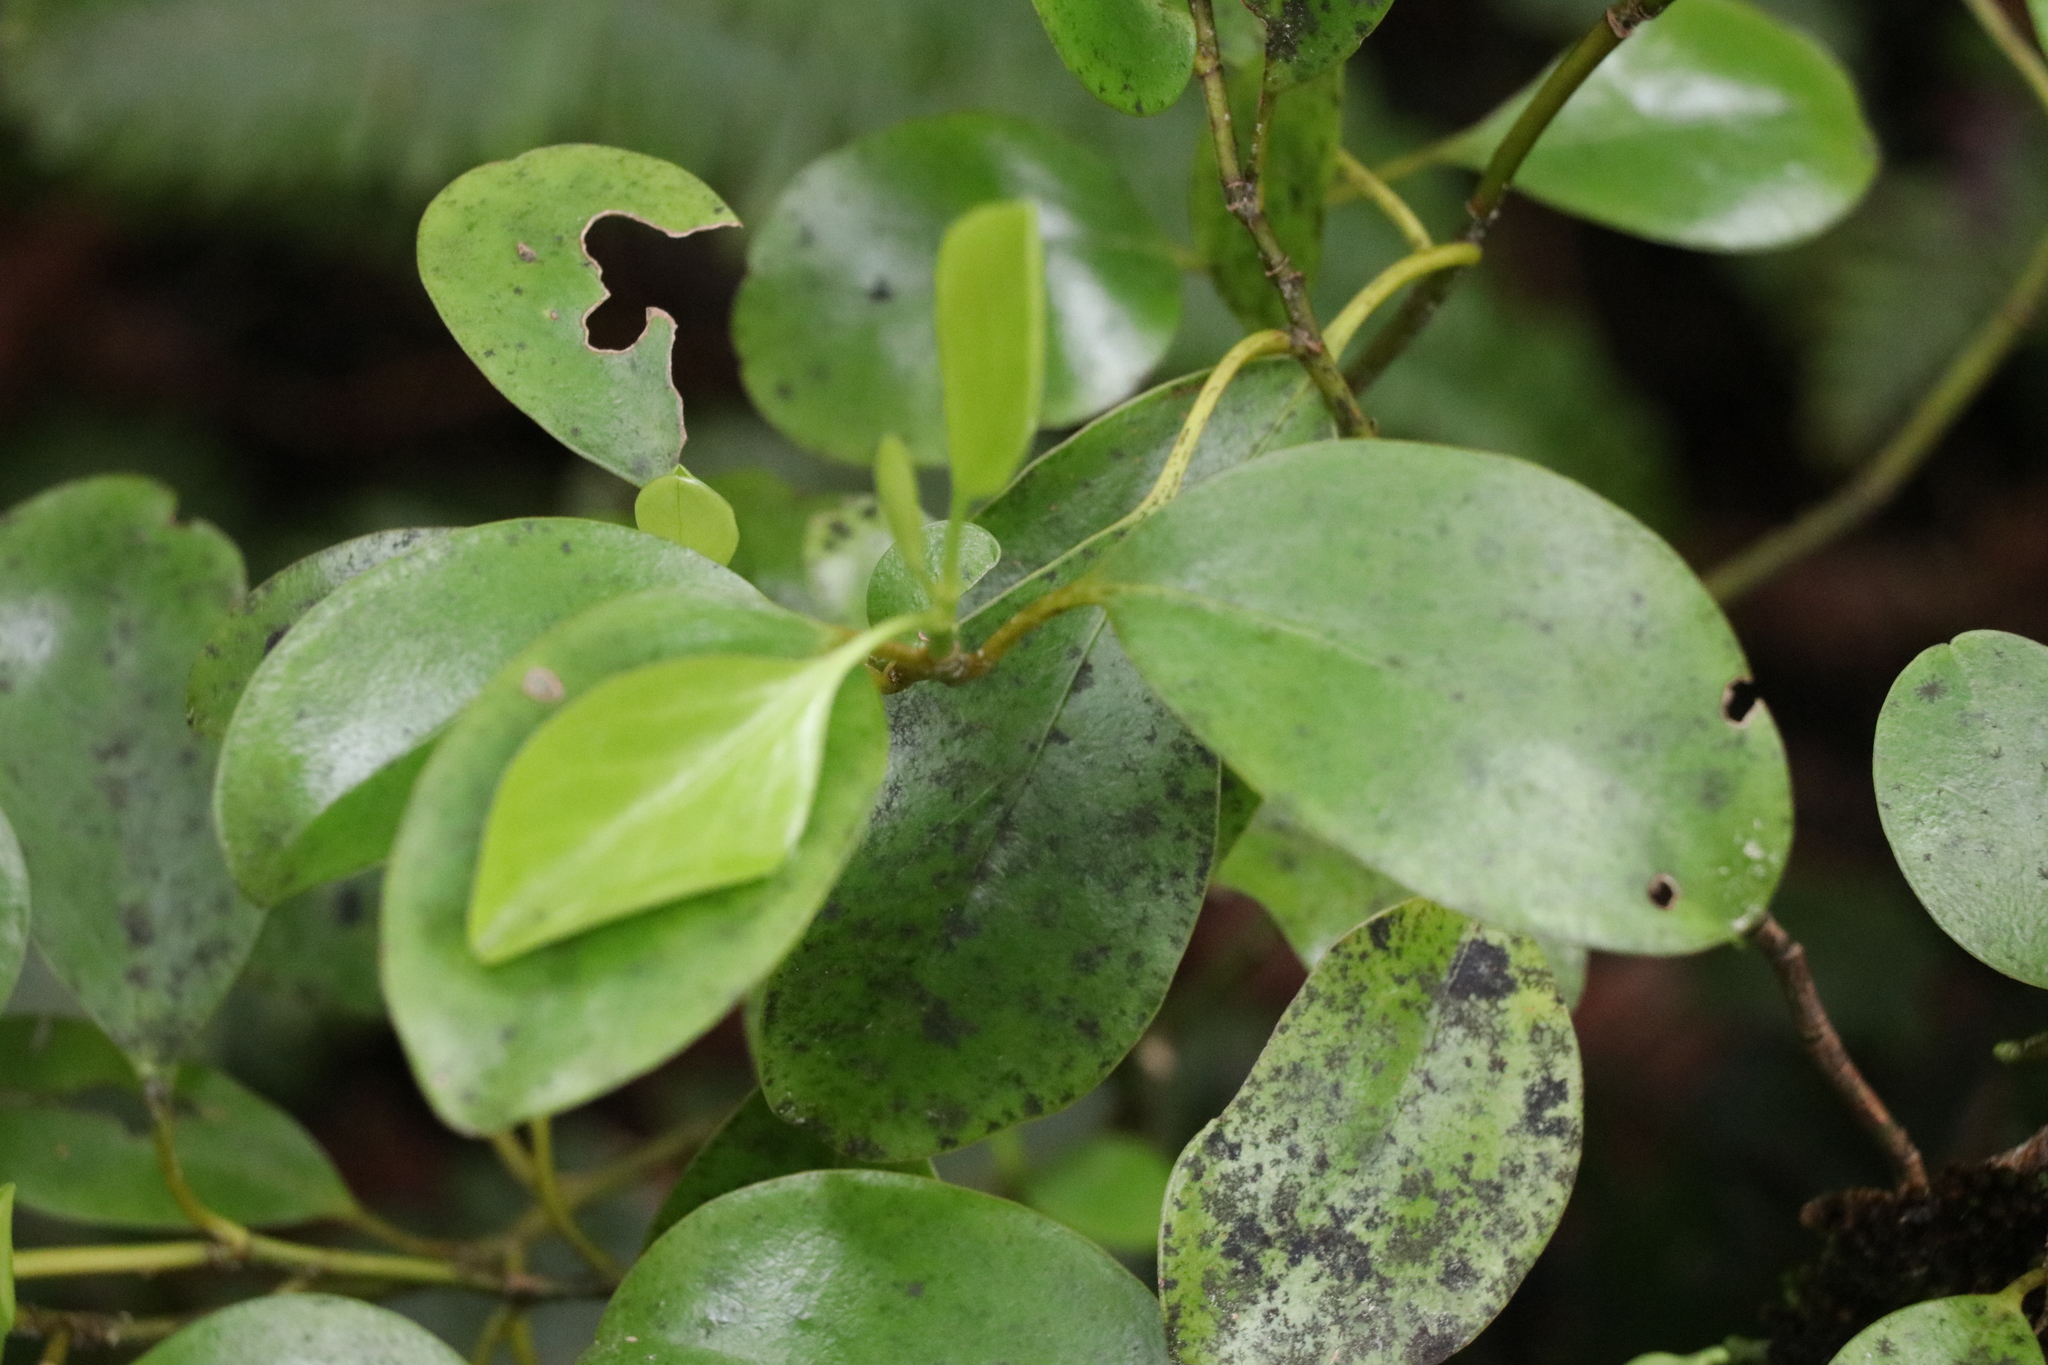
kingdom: Plantae
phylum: Tracheophyta
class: Magnoliopsida
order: Apiales
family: Griseliniaceae
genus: Griselinia
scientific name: Griselinia littoralis
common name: New zealand broadleaf
